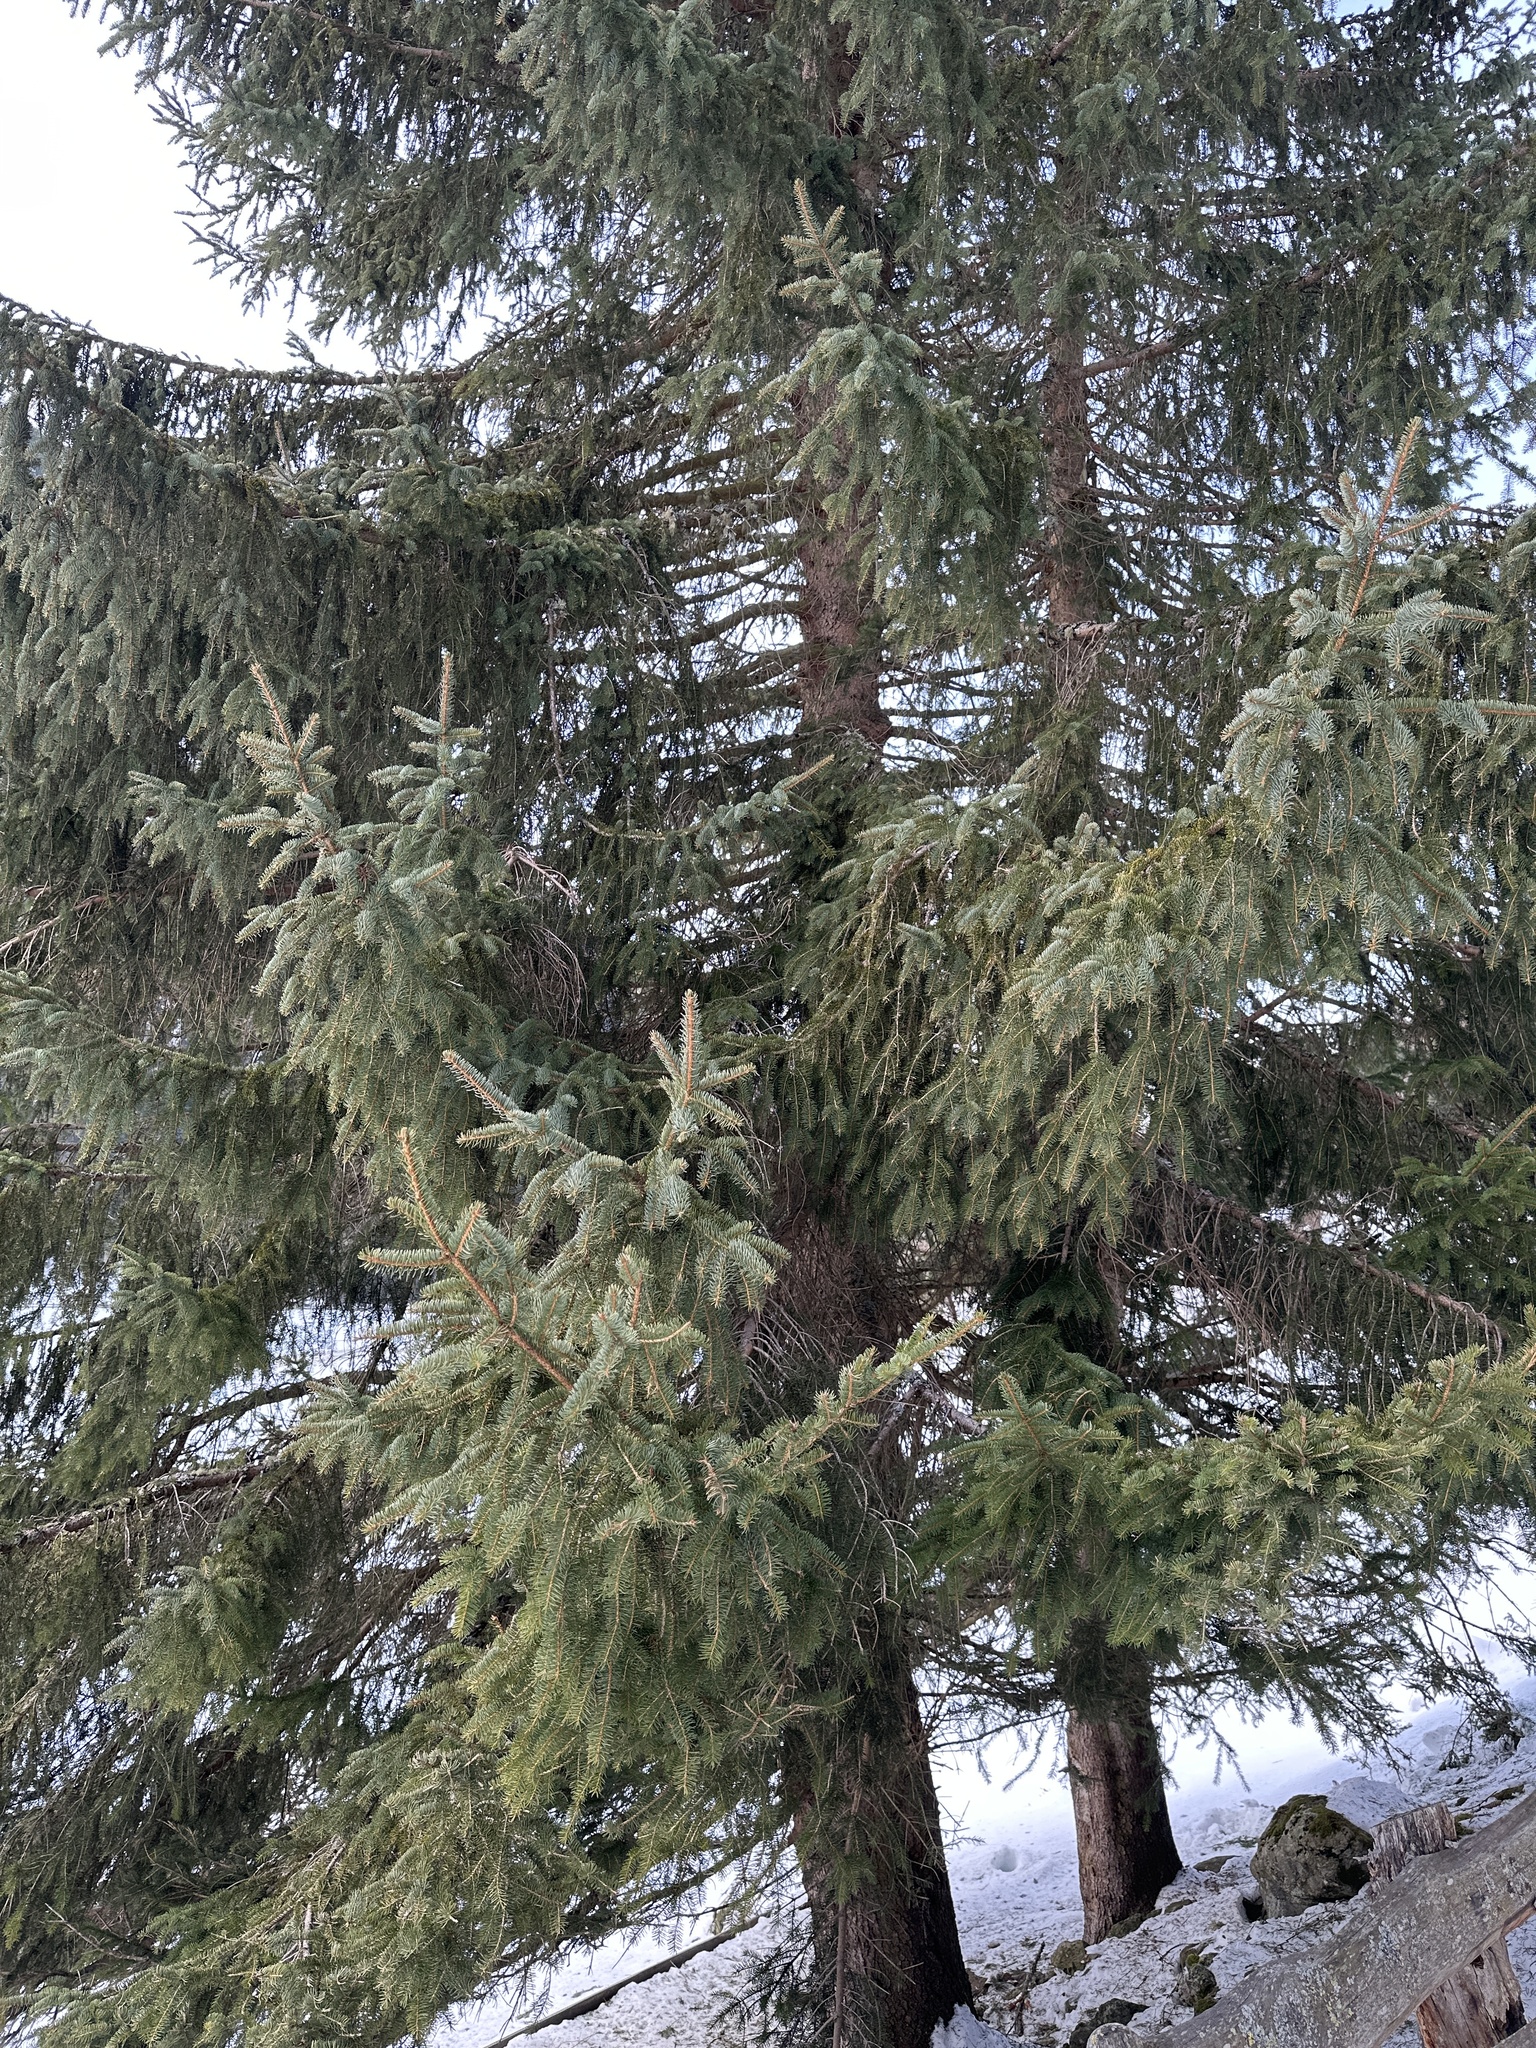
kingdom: Plantae
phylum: Tracheophyta
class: Pinopsida
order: Pinales
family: Pinaceae
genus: Picea
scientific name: Picea abies
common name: Norway spruce
